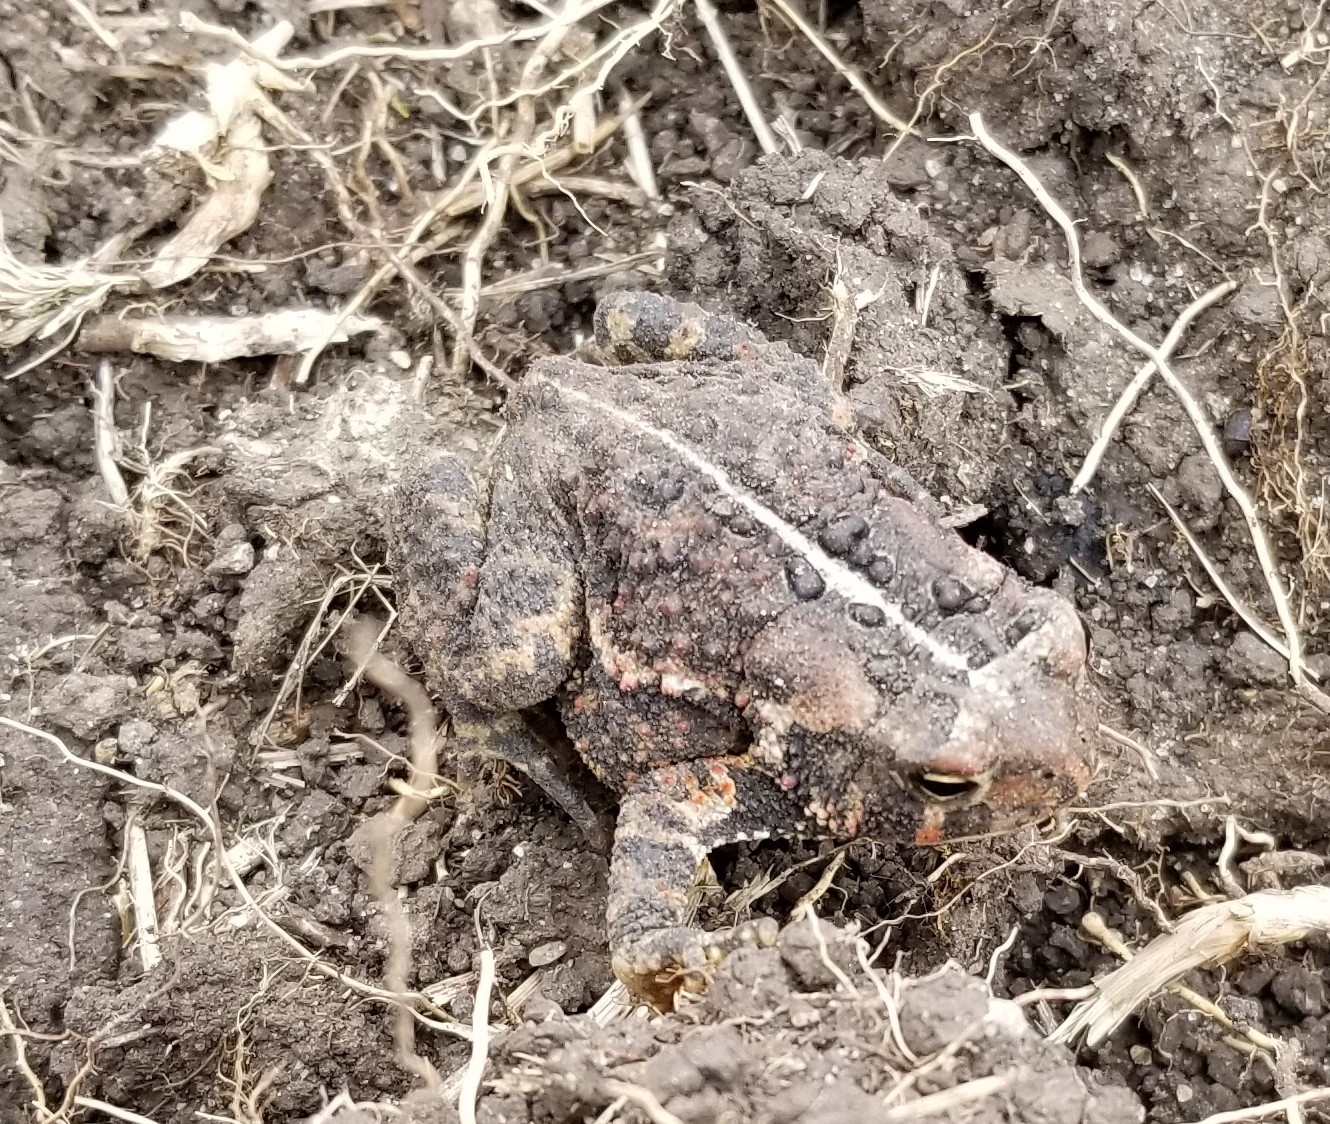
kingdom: Animalia
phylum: Chordata
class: Amphibia
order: Anura
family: Bufonidae
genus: Anaxyrus
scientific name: Anaxyrus americanus
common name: American toad
